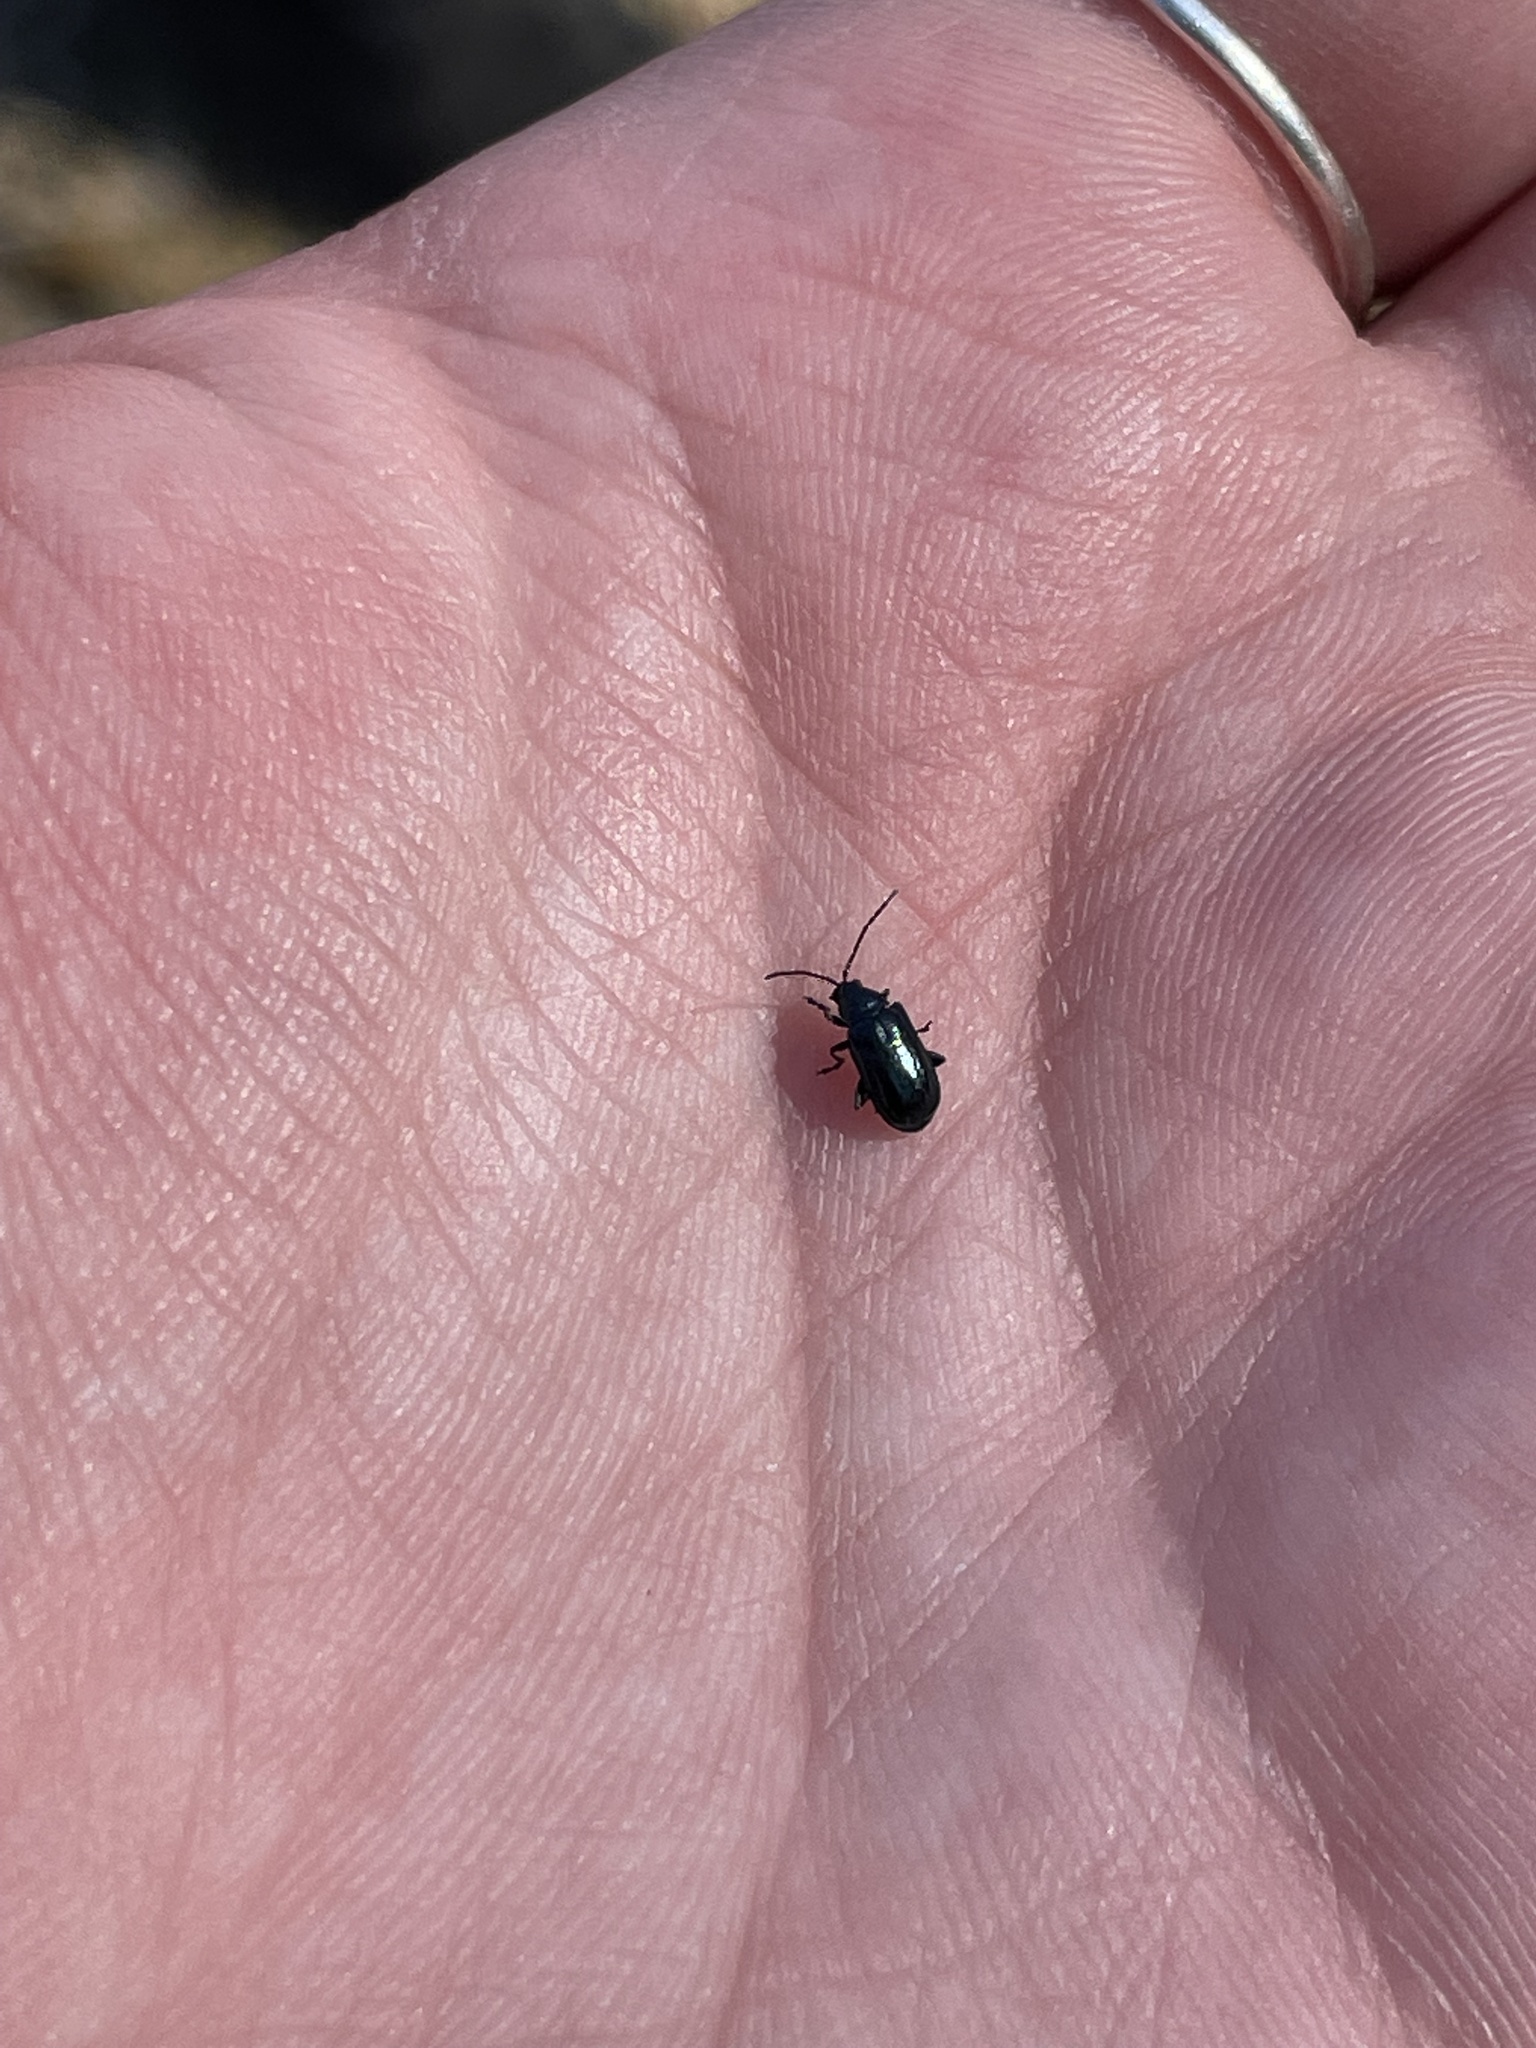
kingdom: Animalia
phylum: Arthropoda
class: Insecta
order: Coleoptera
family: Chrysomelidae
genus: Altica
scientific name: Altica ambiens
